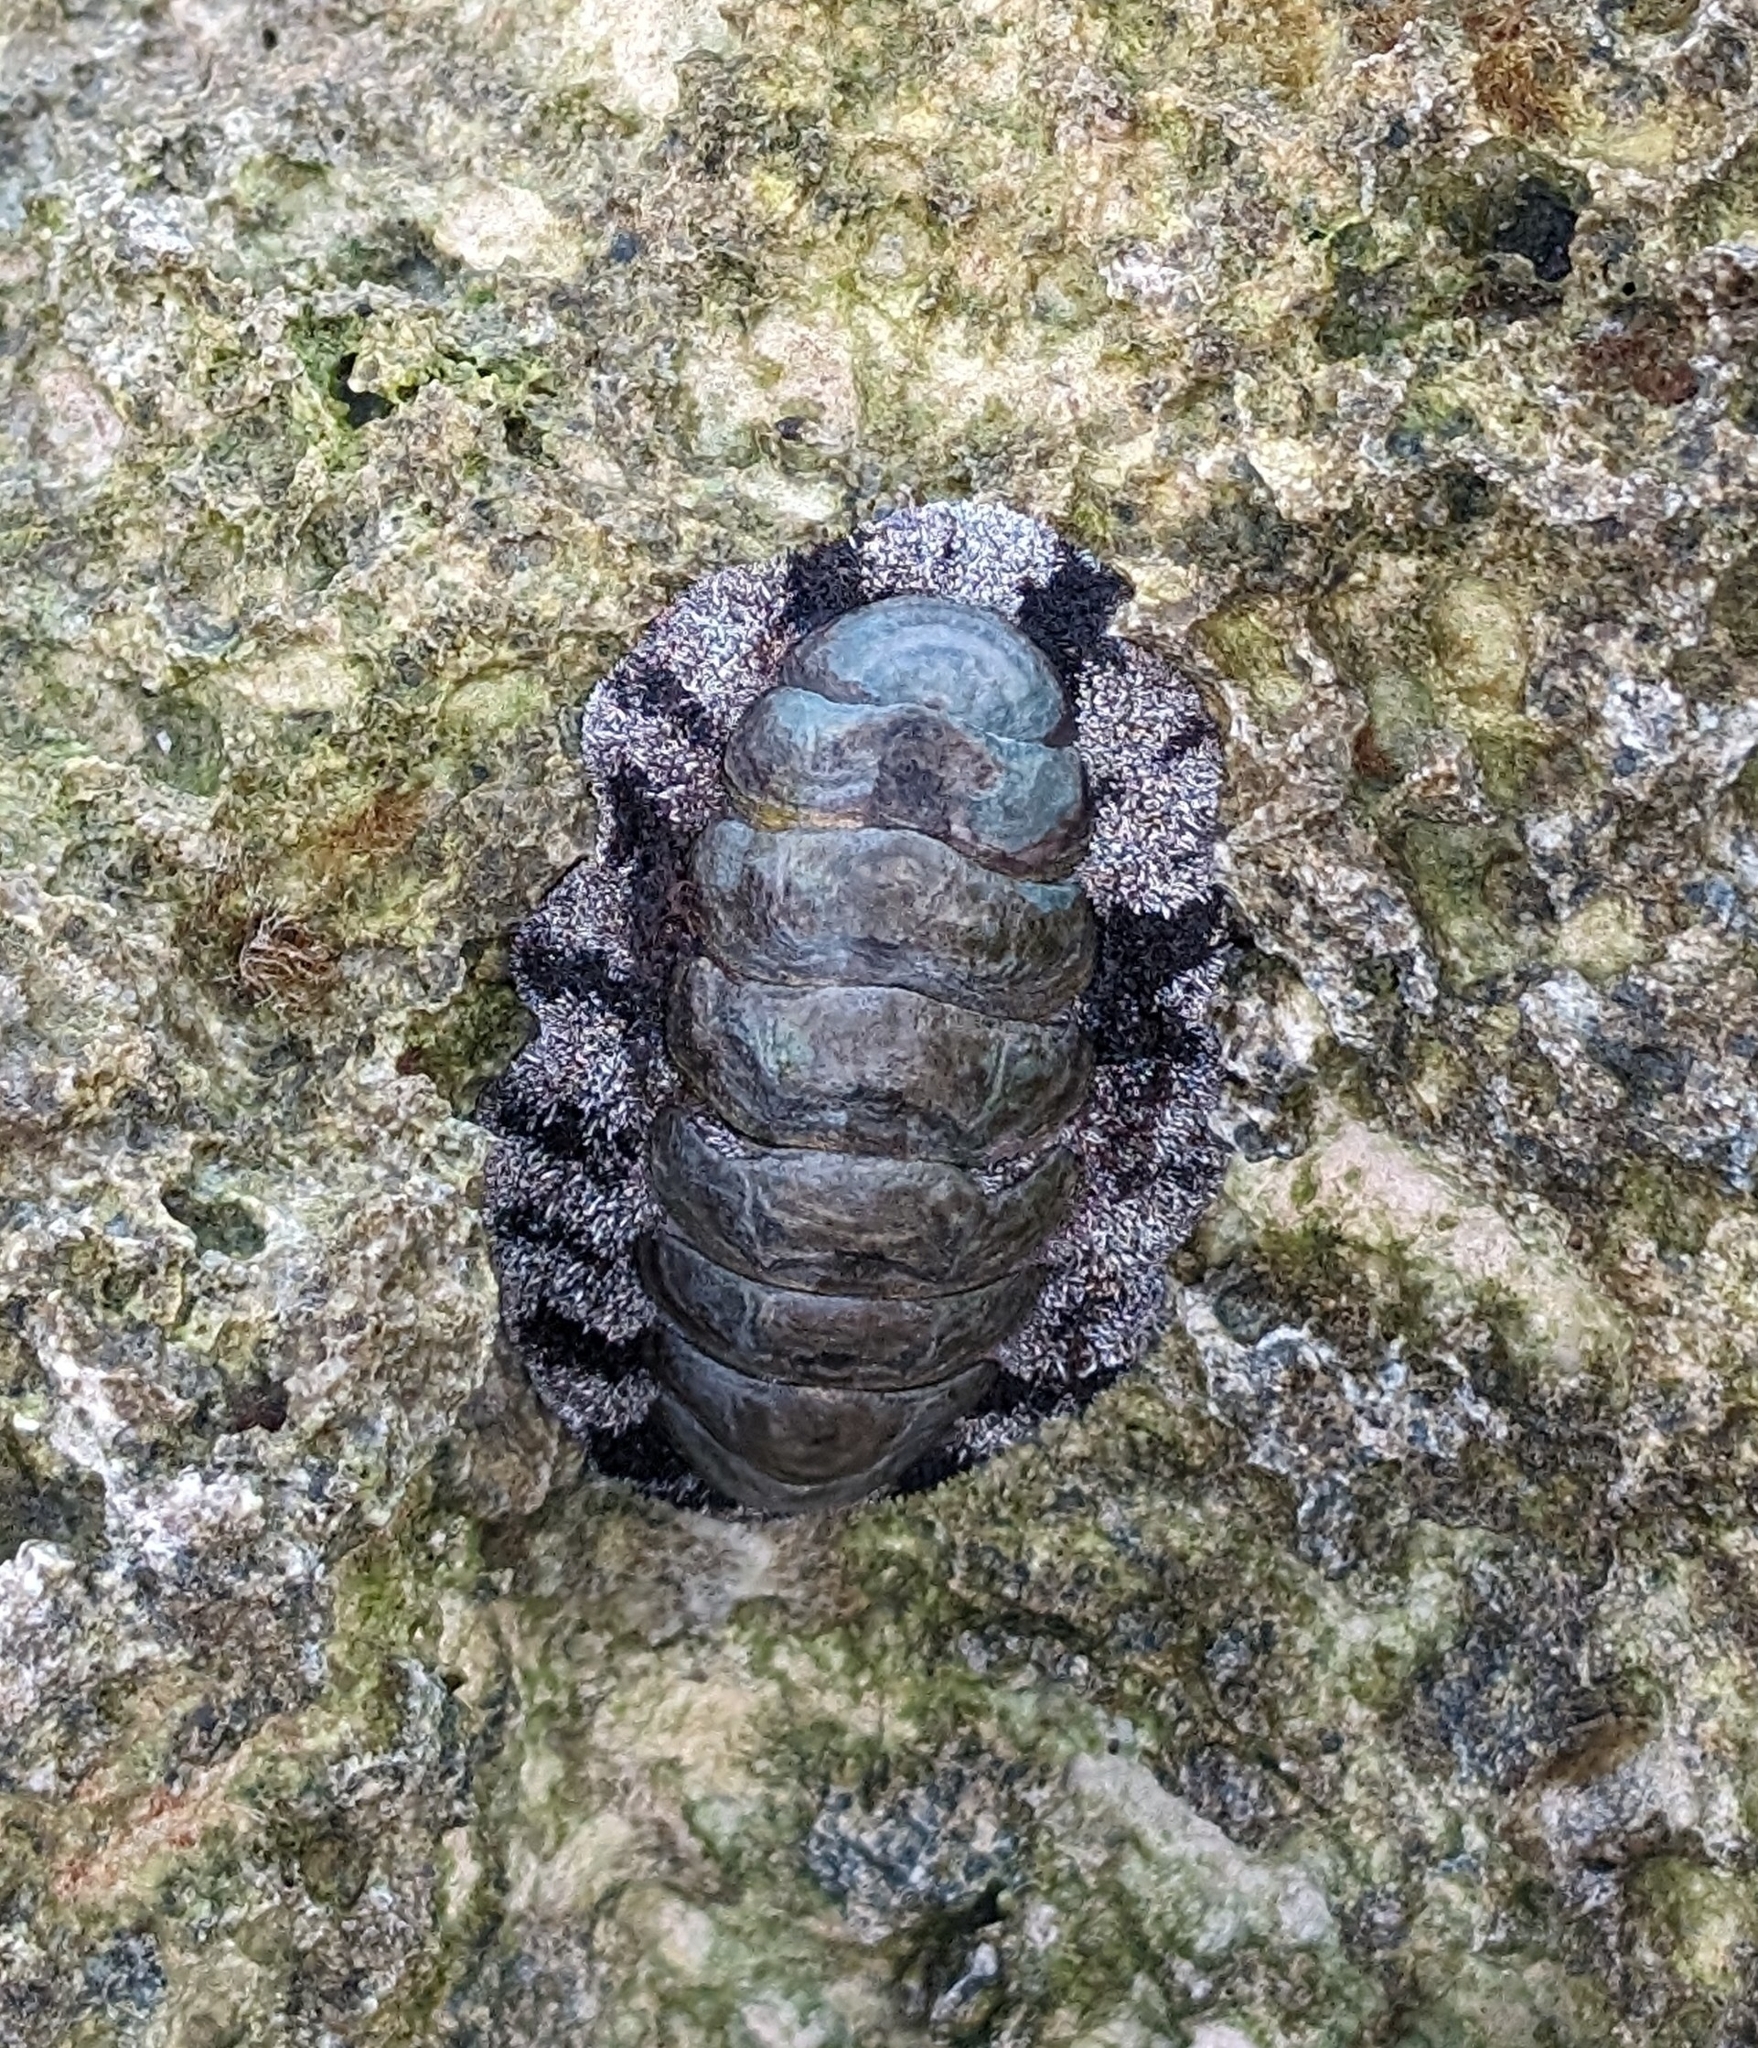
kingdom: Animalia
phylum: Mollusca
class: Polyplacophora
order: Chitonida
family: Chitonidae
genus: Acanthopleura
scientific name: Acanthopleura granulata
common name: West indian fuzzy chiton
